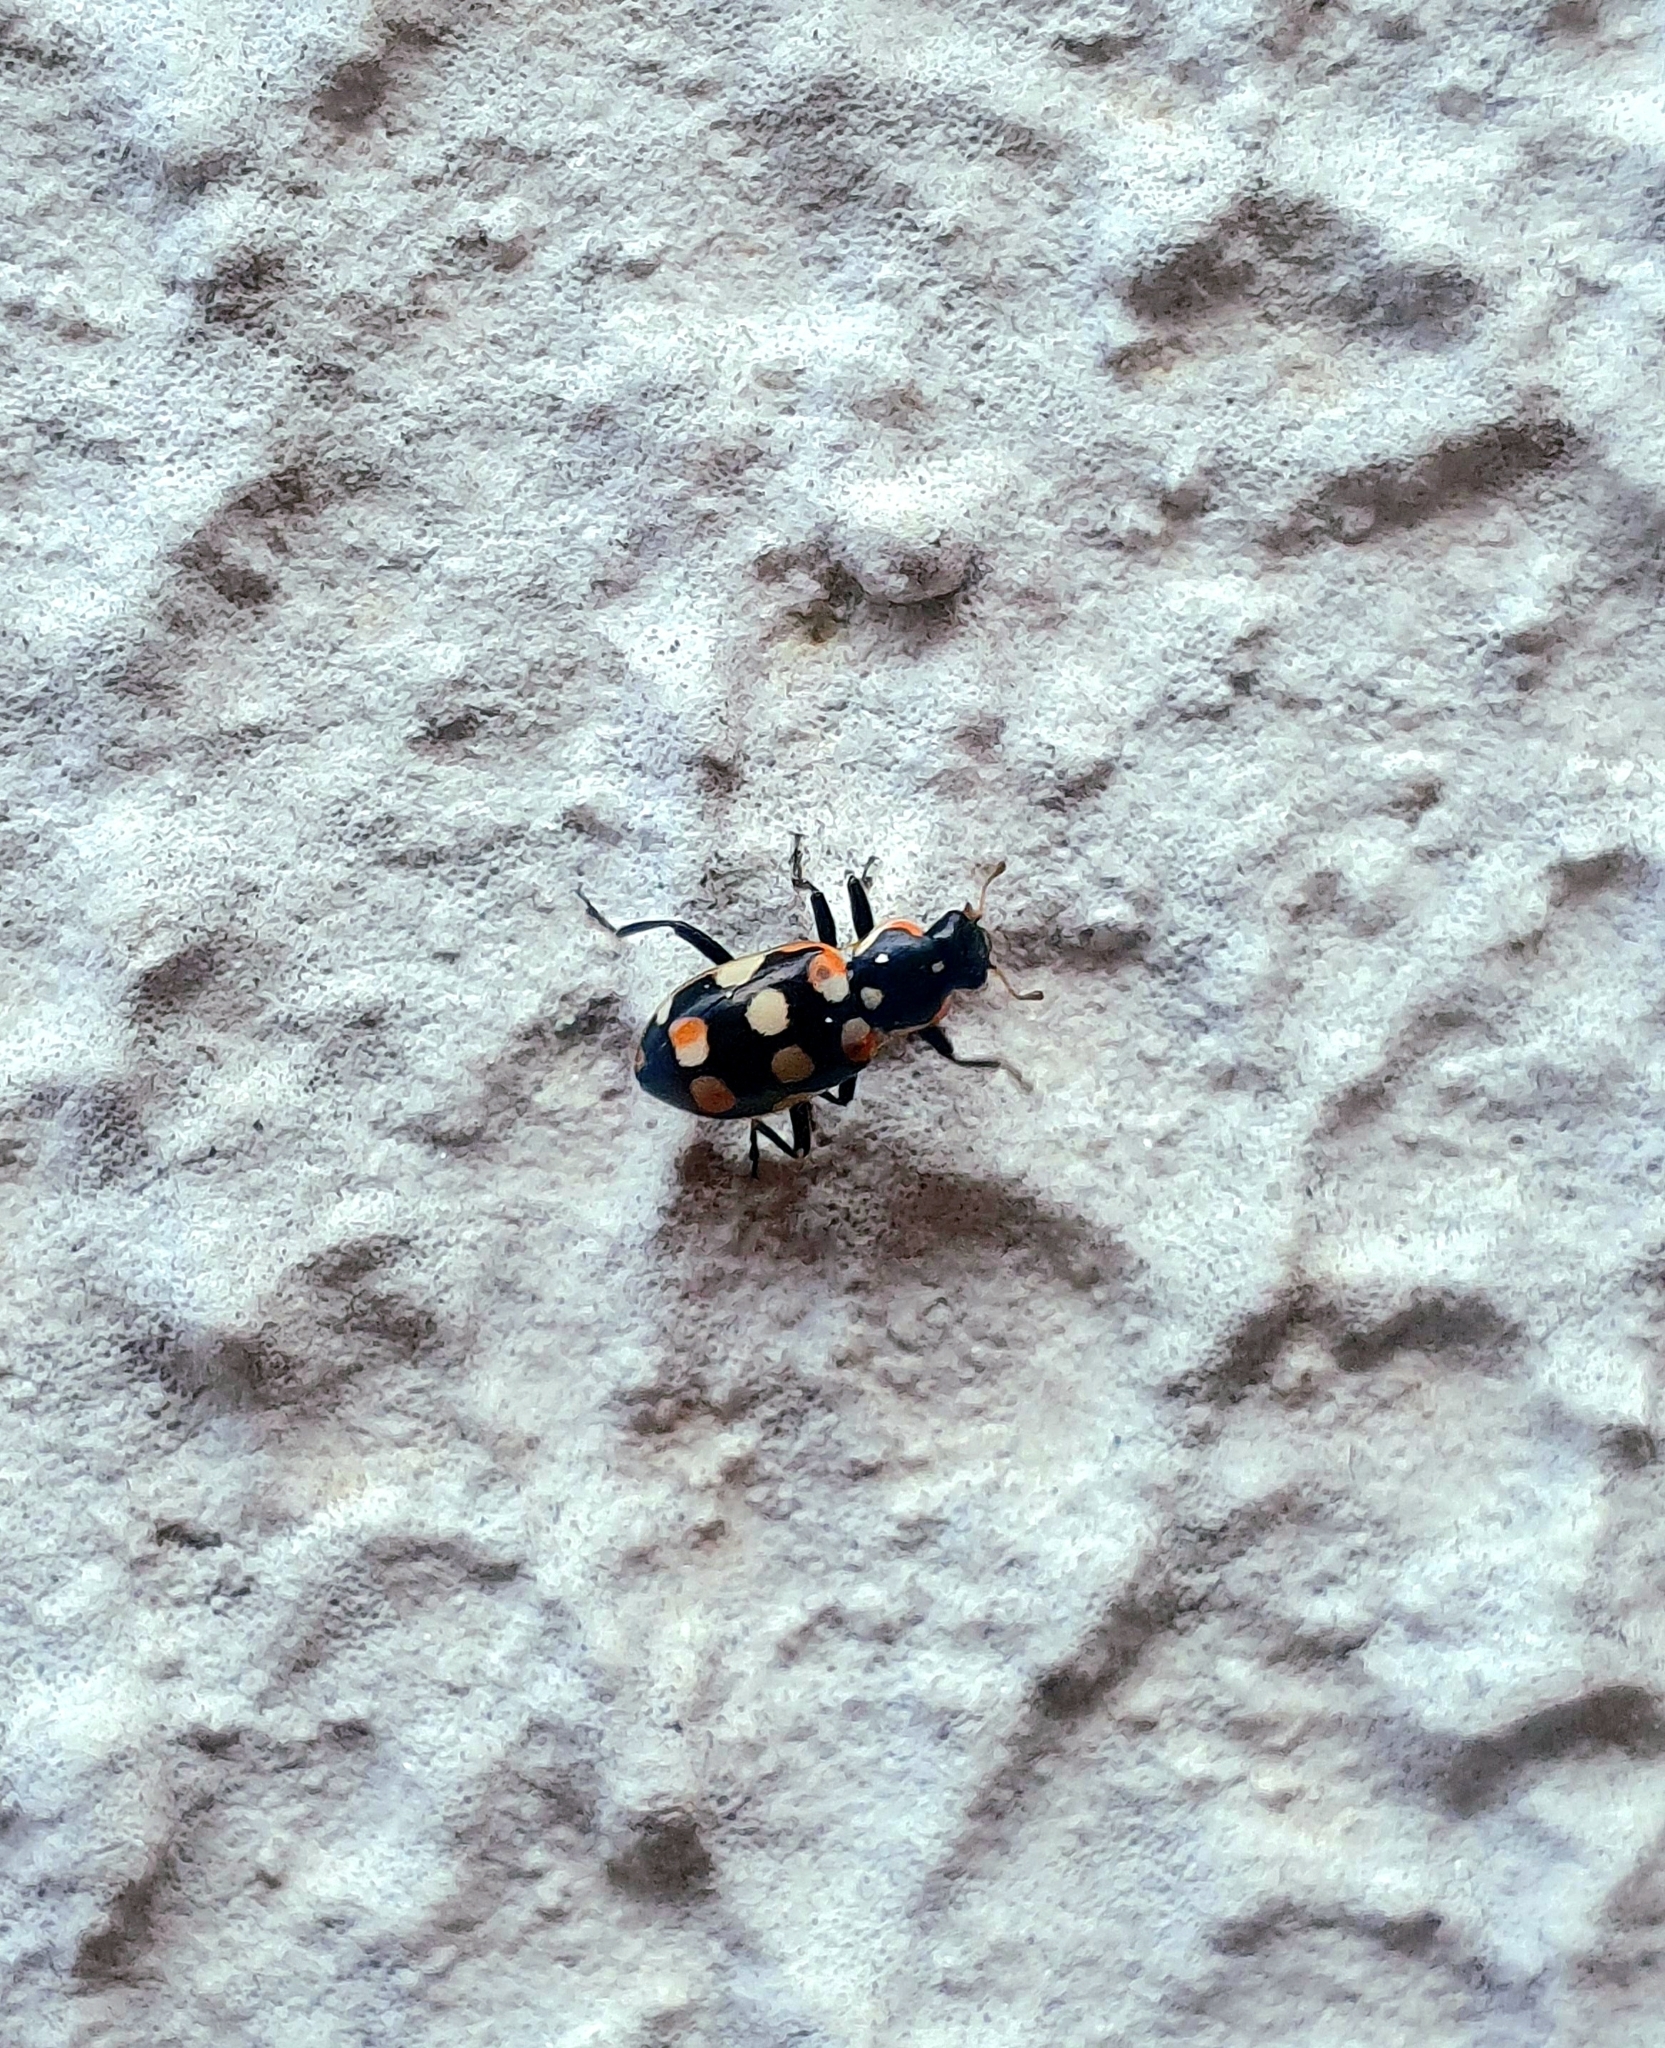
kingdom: Animalia
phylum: Arthropoda
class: Insecta
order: Coleoptera
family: Coccinellidae
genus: Eriopis
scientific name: Eriopis connexa
